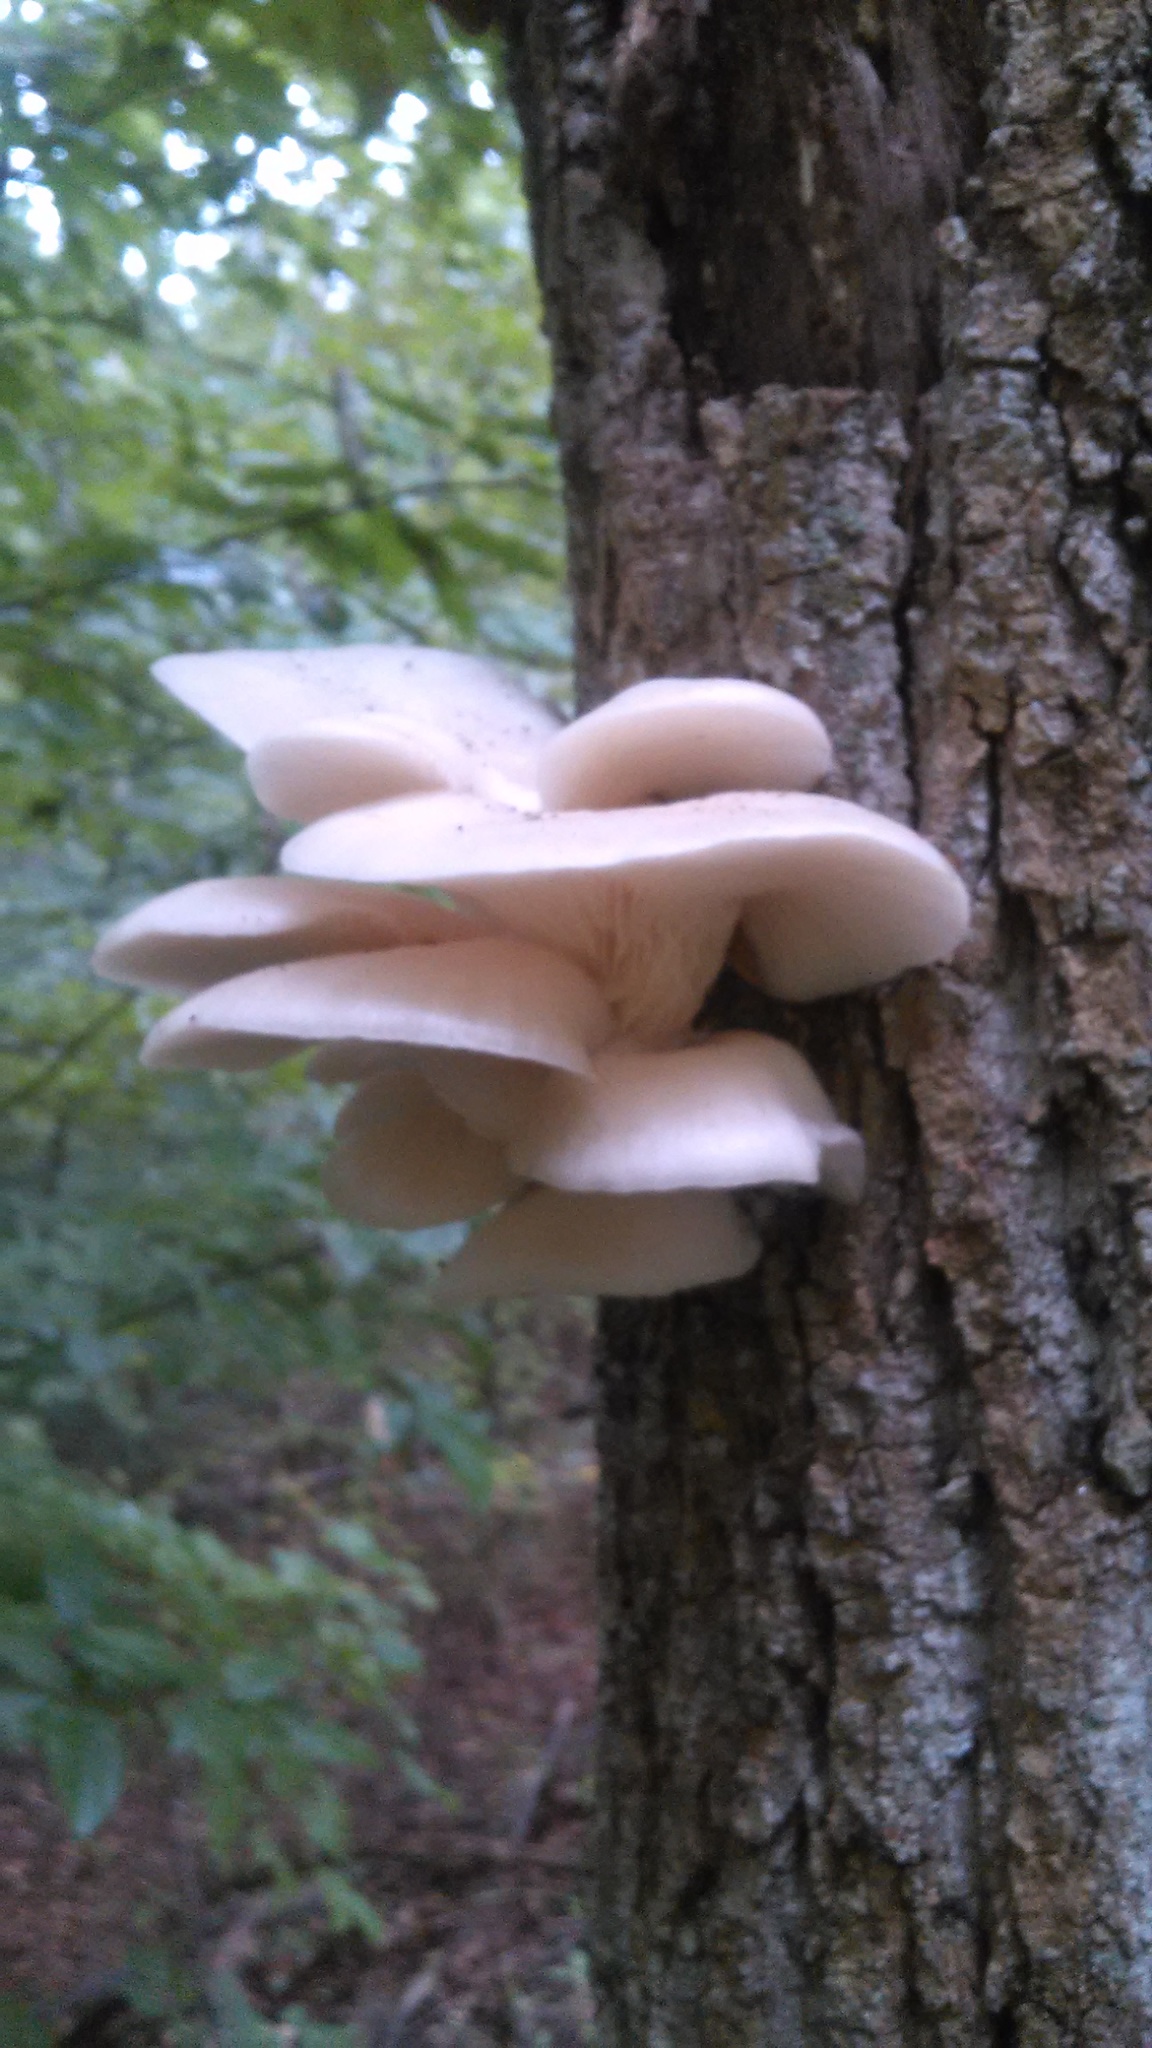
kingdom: Fungi
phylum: Basidiomycota
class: Agaricomycetes
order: Agaricales
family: Pleurotaceae
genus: Pleurotus
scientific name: Pleurotus populinus
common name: Aspen oyster mushroom
